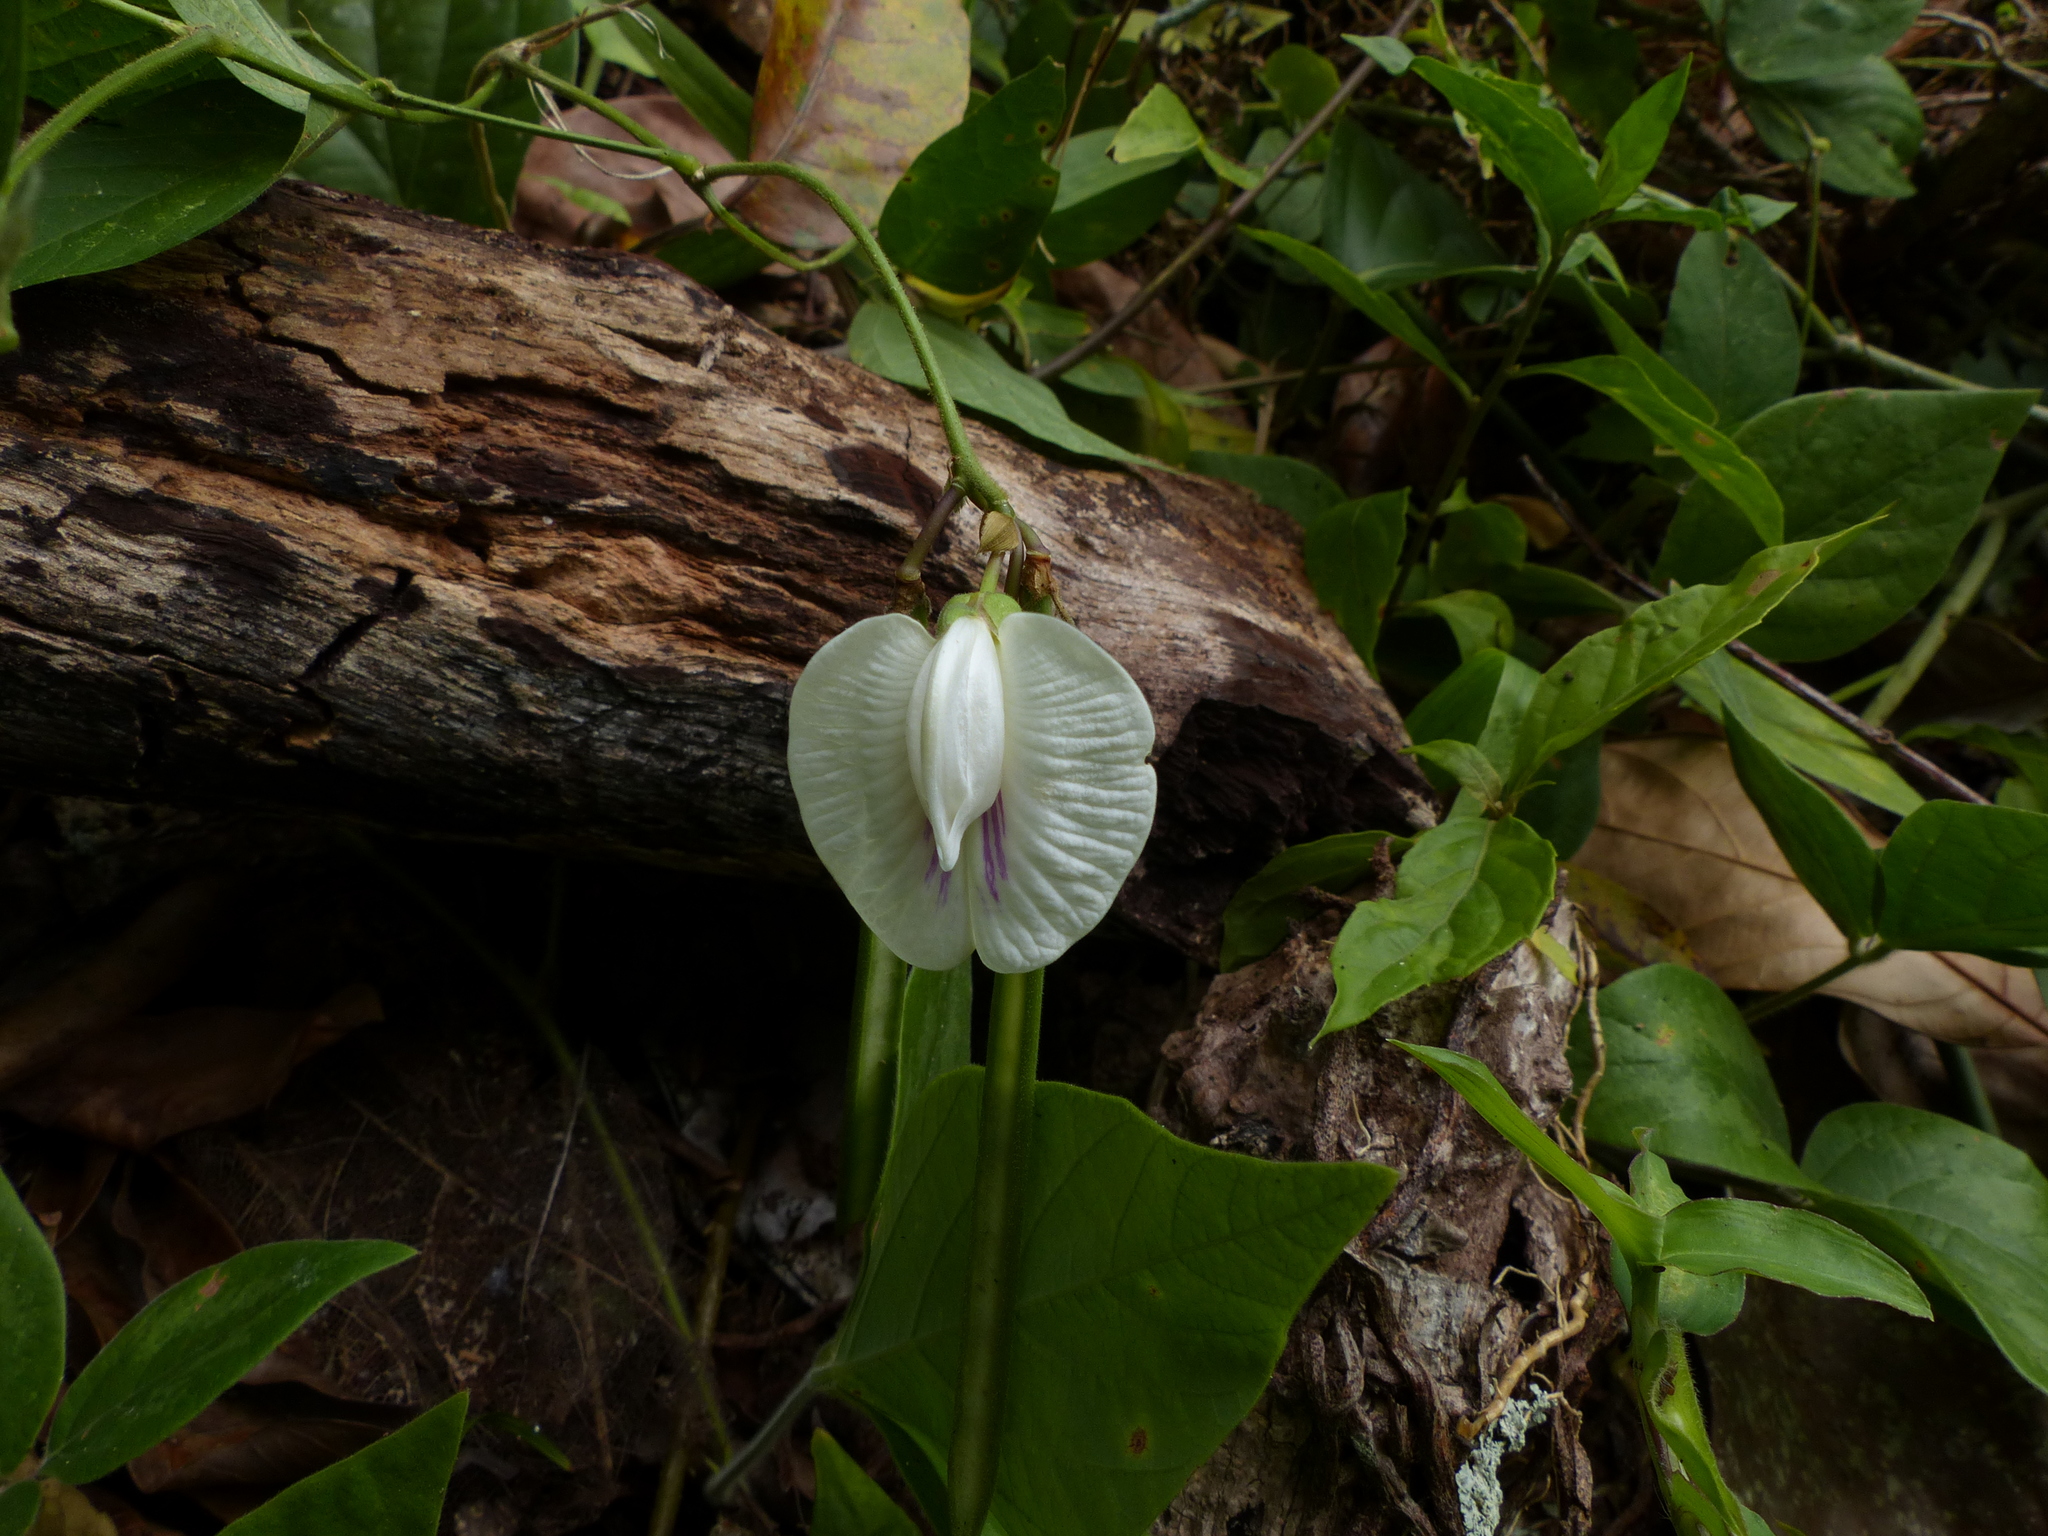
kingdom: Plantae
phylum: Tracheophyta
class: Magnoliopsida
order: Fabales
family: Fabaceae
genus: Centrosema
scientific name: Centrosema pubescens
